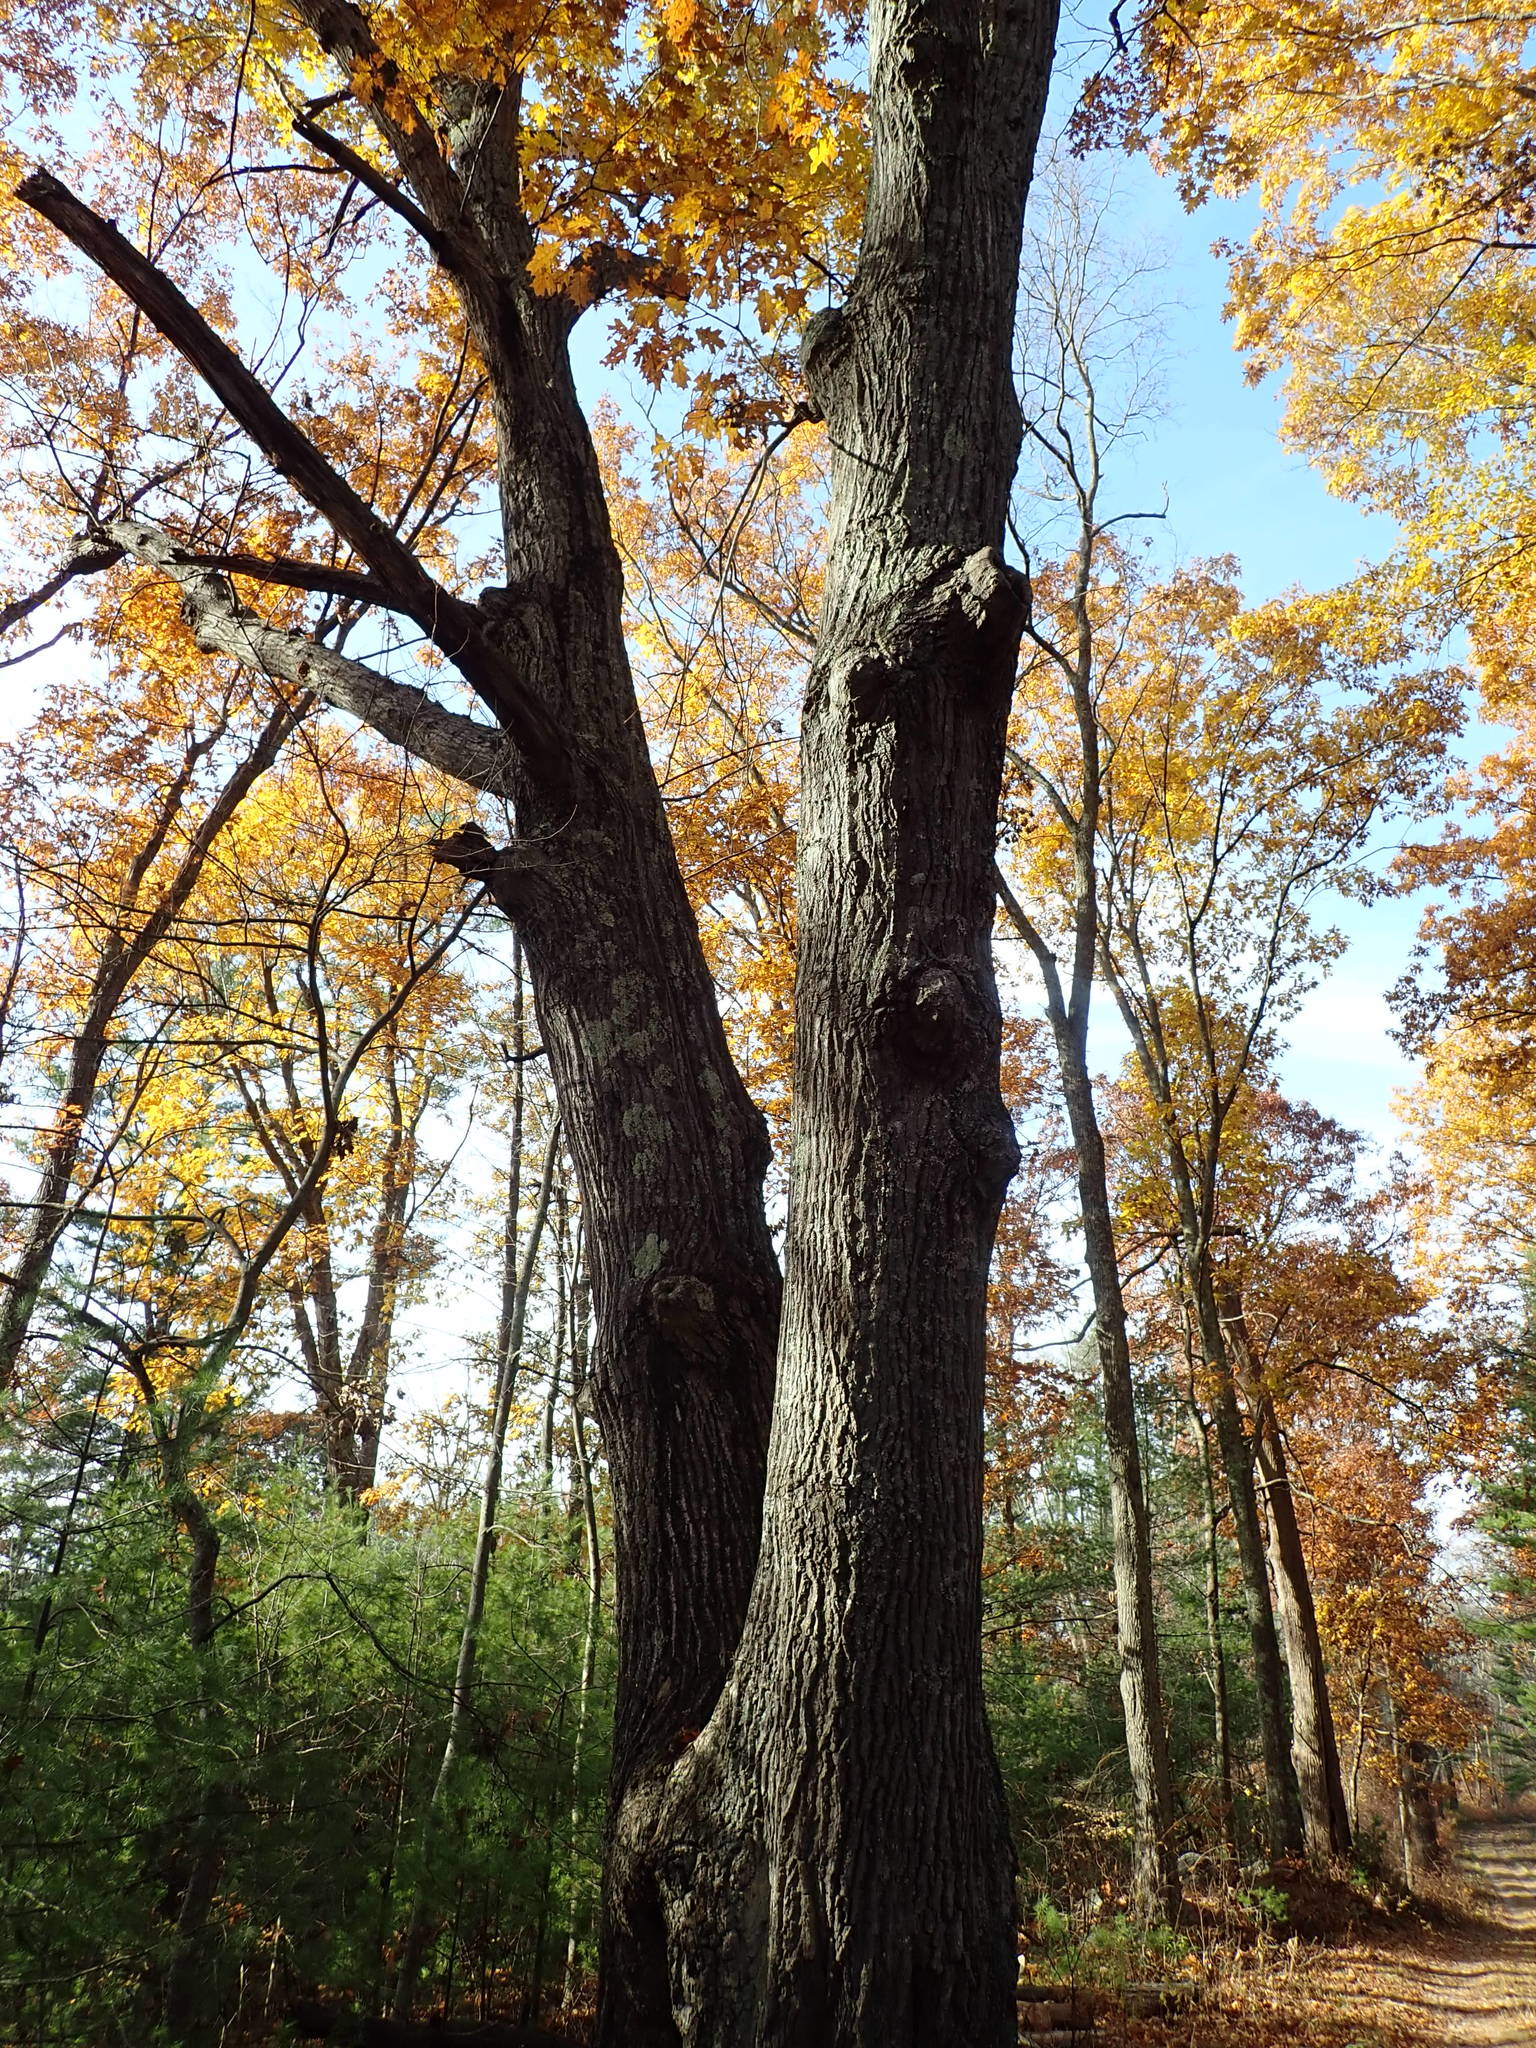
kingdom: Plantae
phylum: Tracheophyta
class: Magnoliopsida
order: Fagales
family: Fagaceae
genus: Quercus
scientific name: Quercus rubra
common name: Red oak
